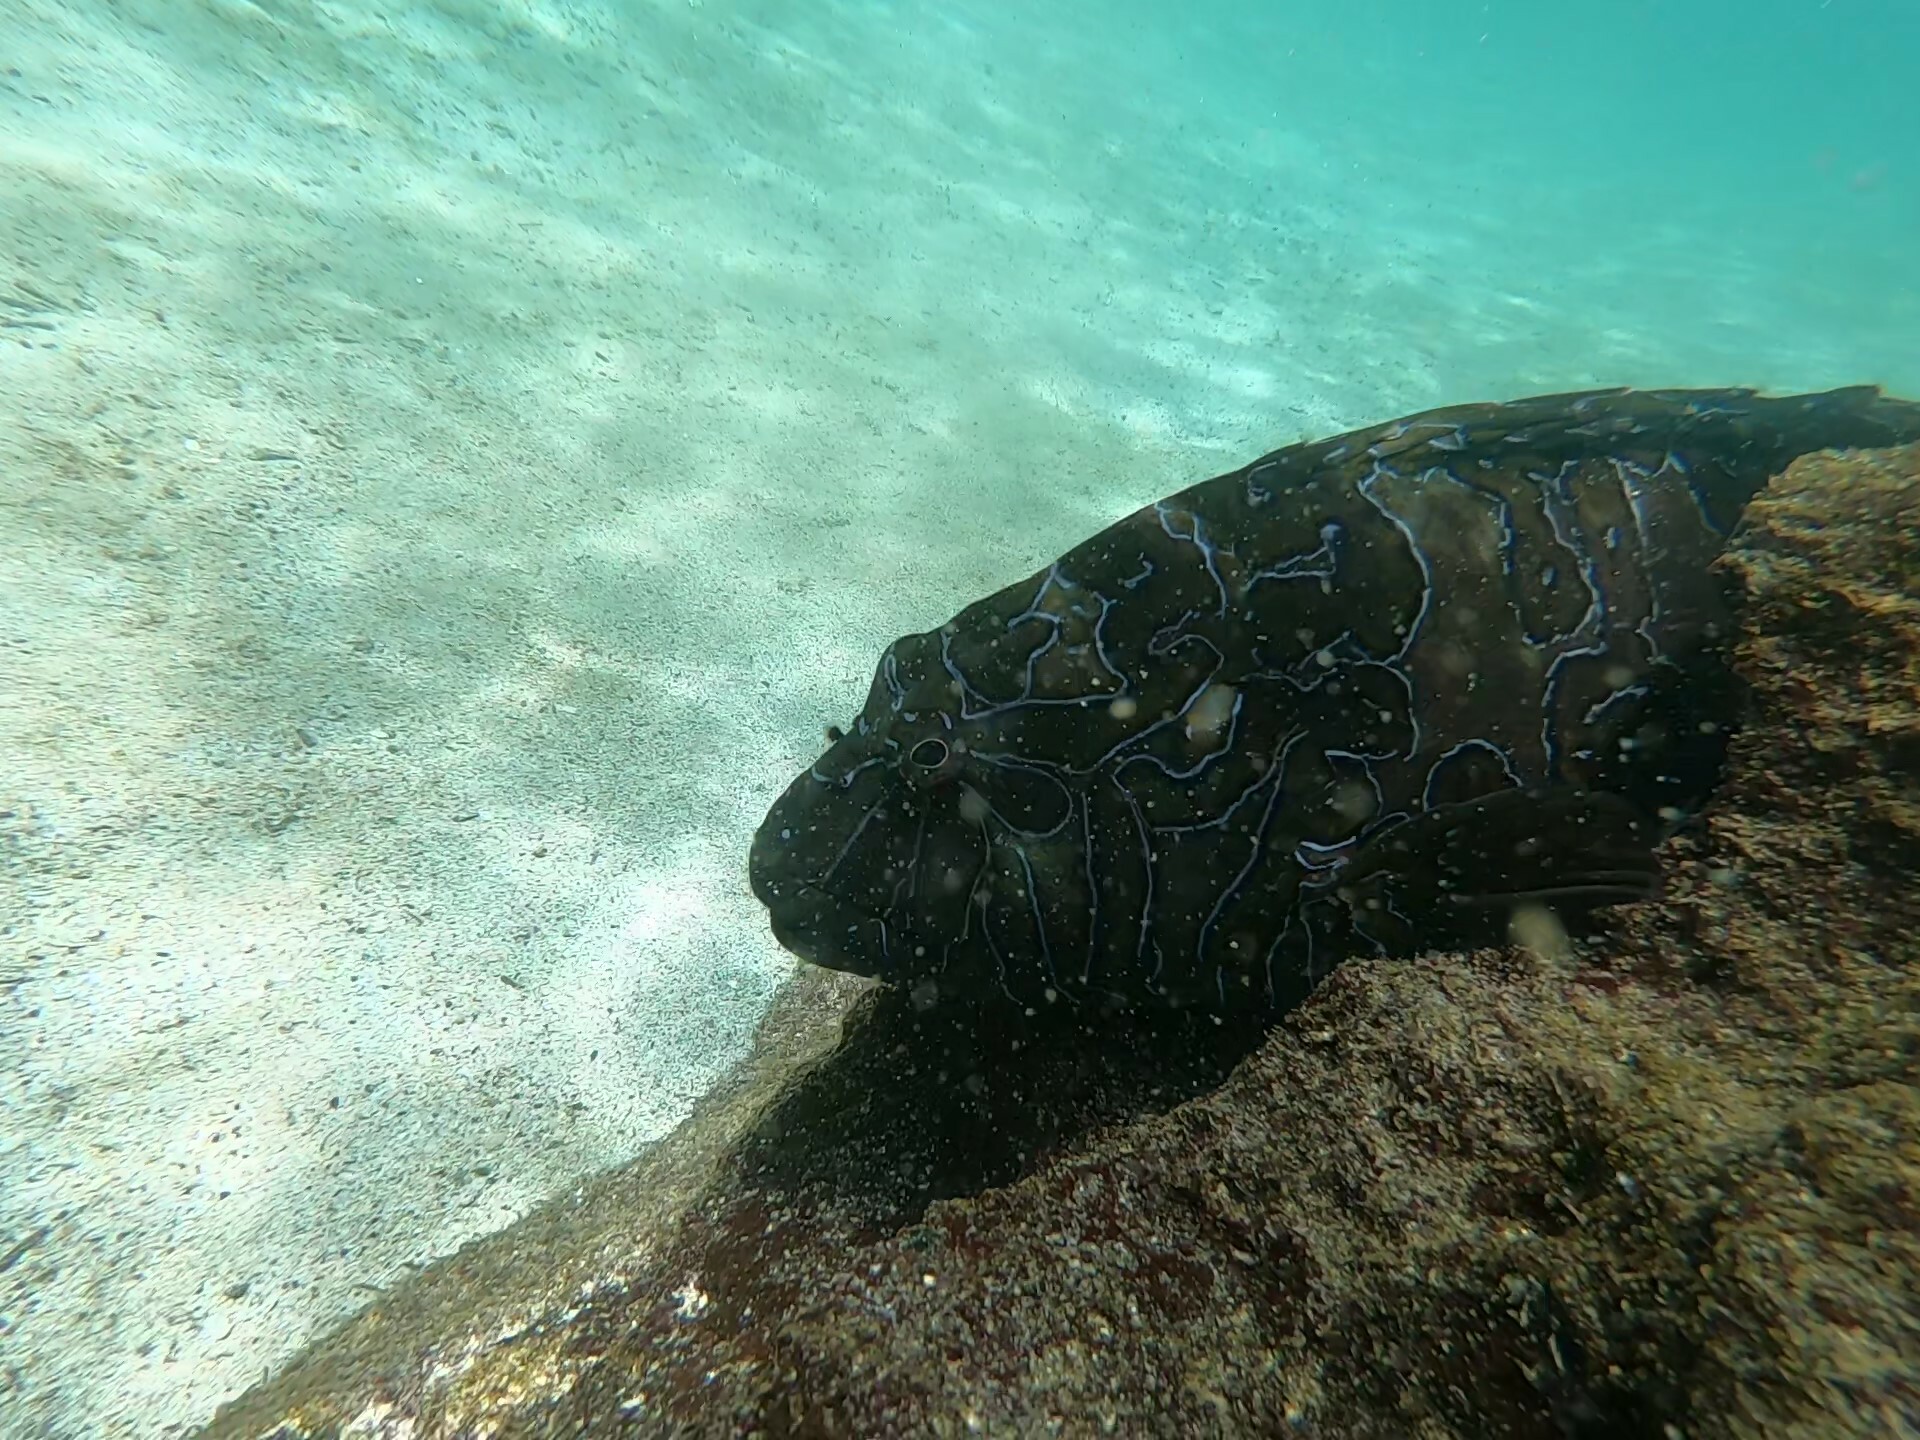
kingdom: Animalia
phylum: Chordata
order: Perciformes
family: Cirrhitidae
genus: Cirrhitus
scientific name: Cirrhitus rivulatus
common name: Giant hawkfish
